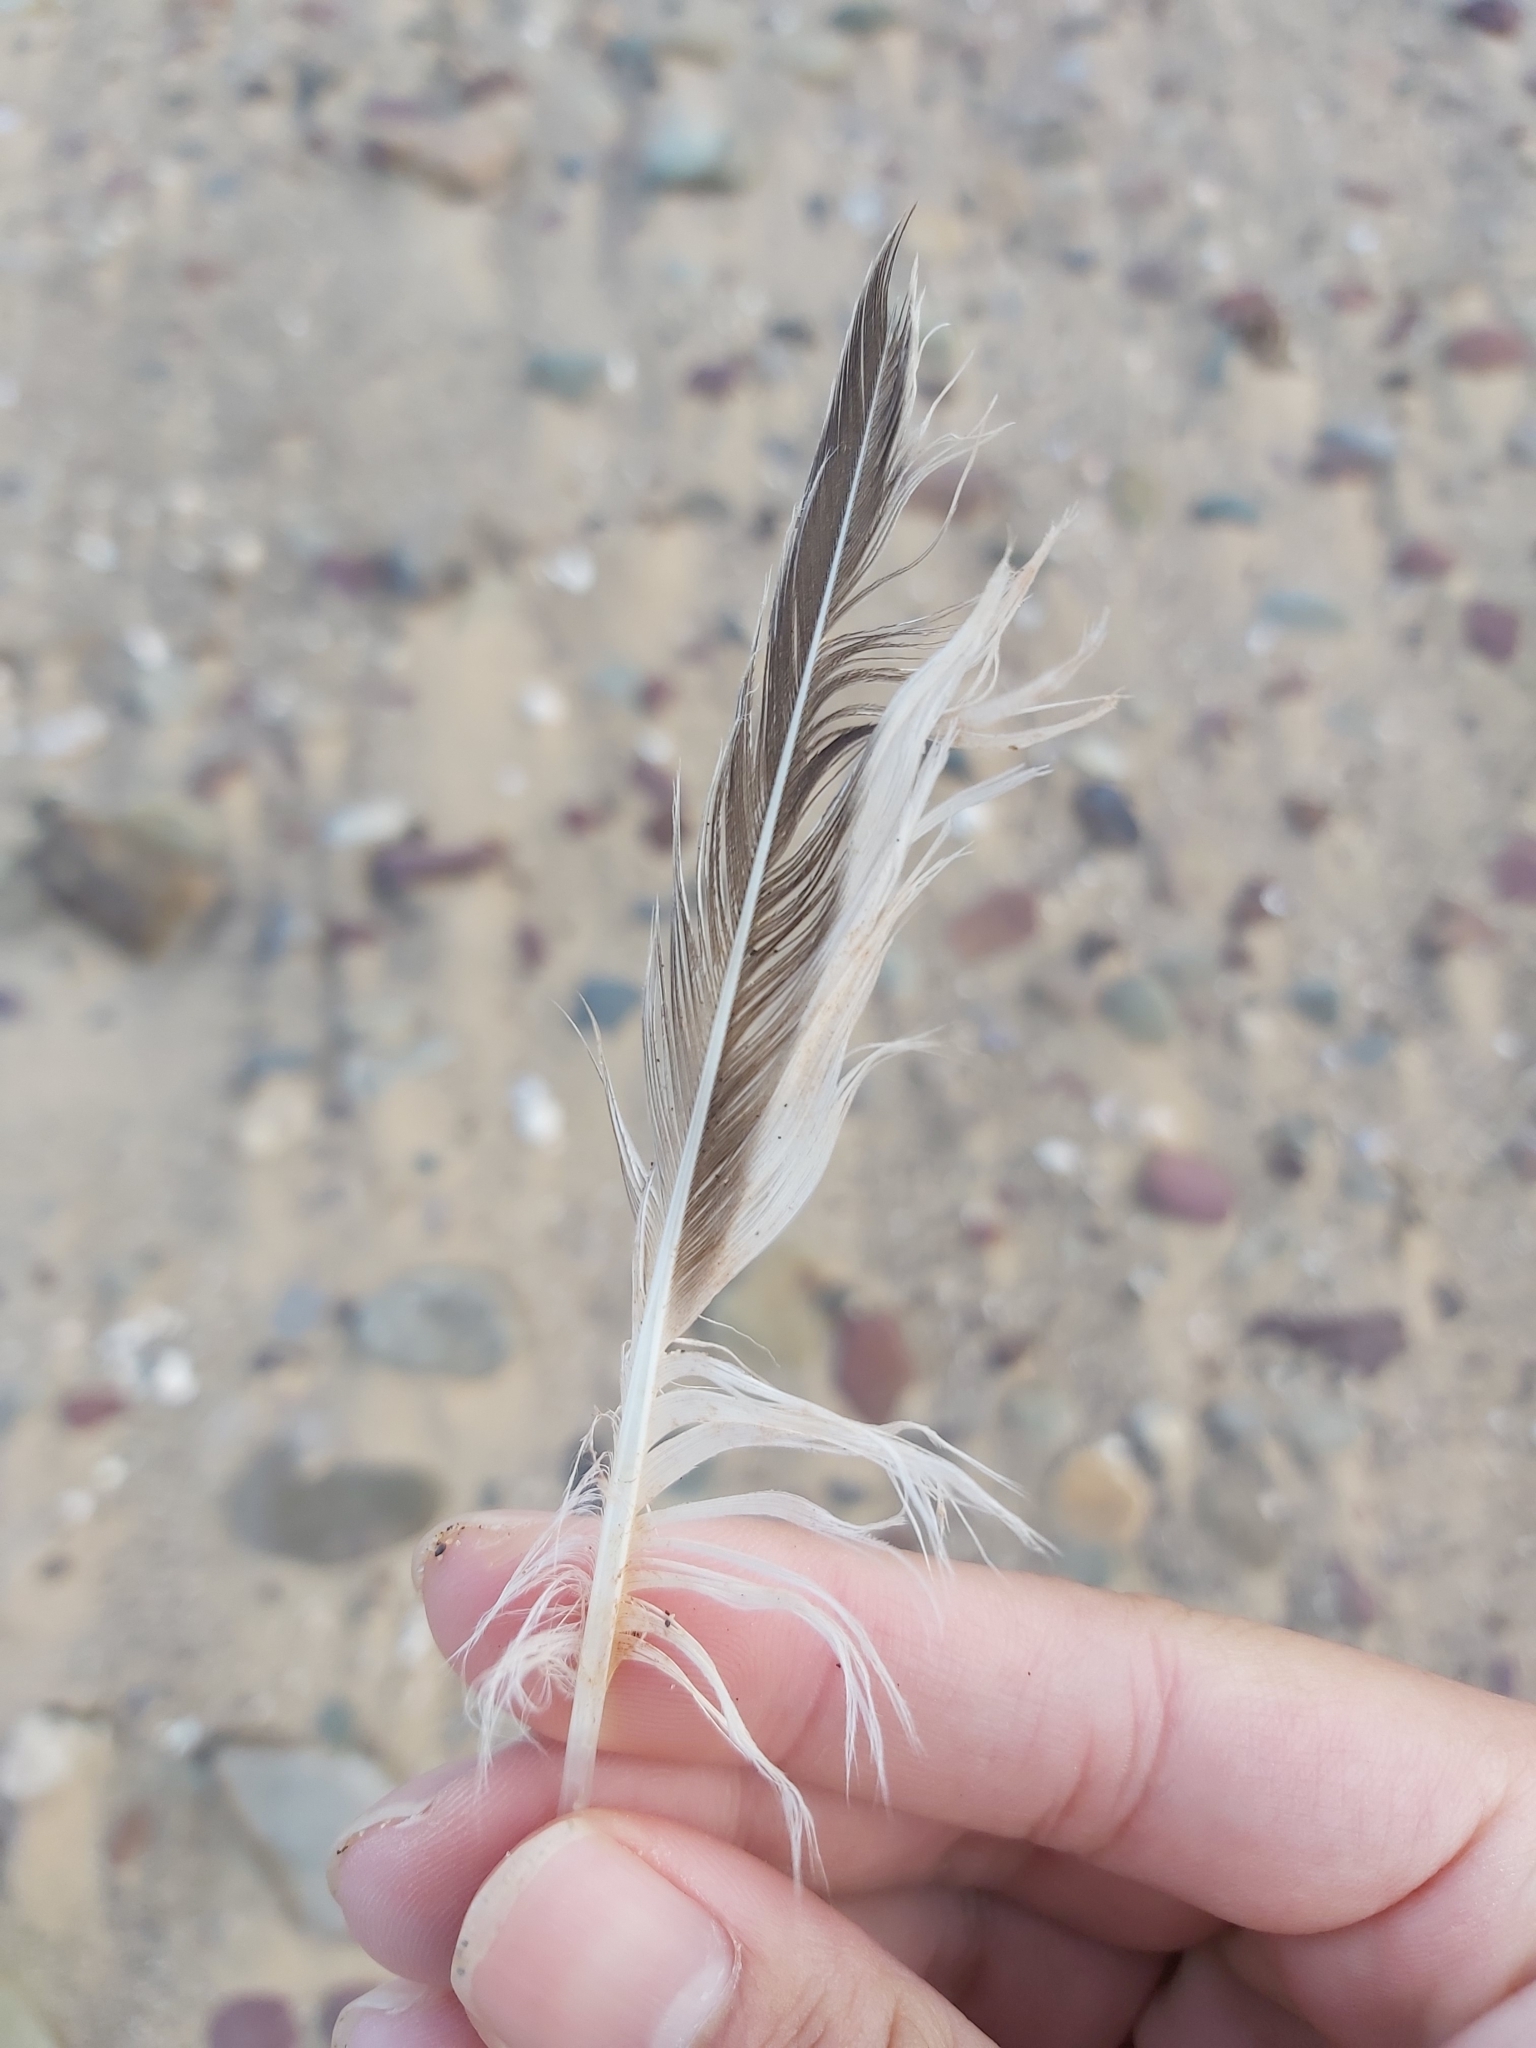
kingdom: Animalia
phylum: Chordata
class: Aves
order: Charadriiformes
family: Laridae
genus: Thalasseus
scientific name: Thalasseus bergii
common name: Greater crested tern
